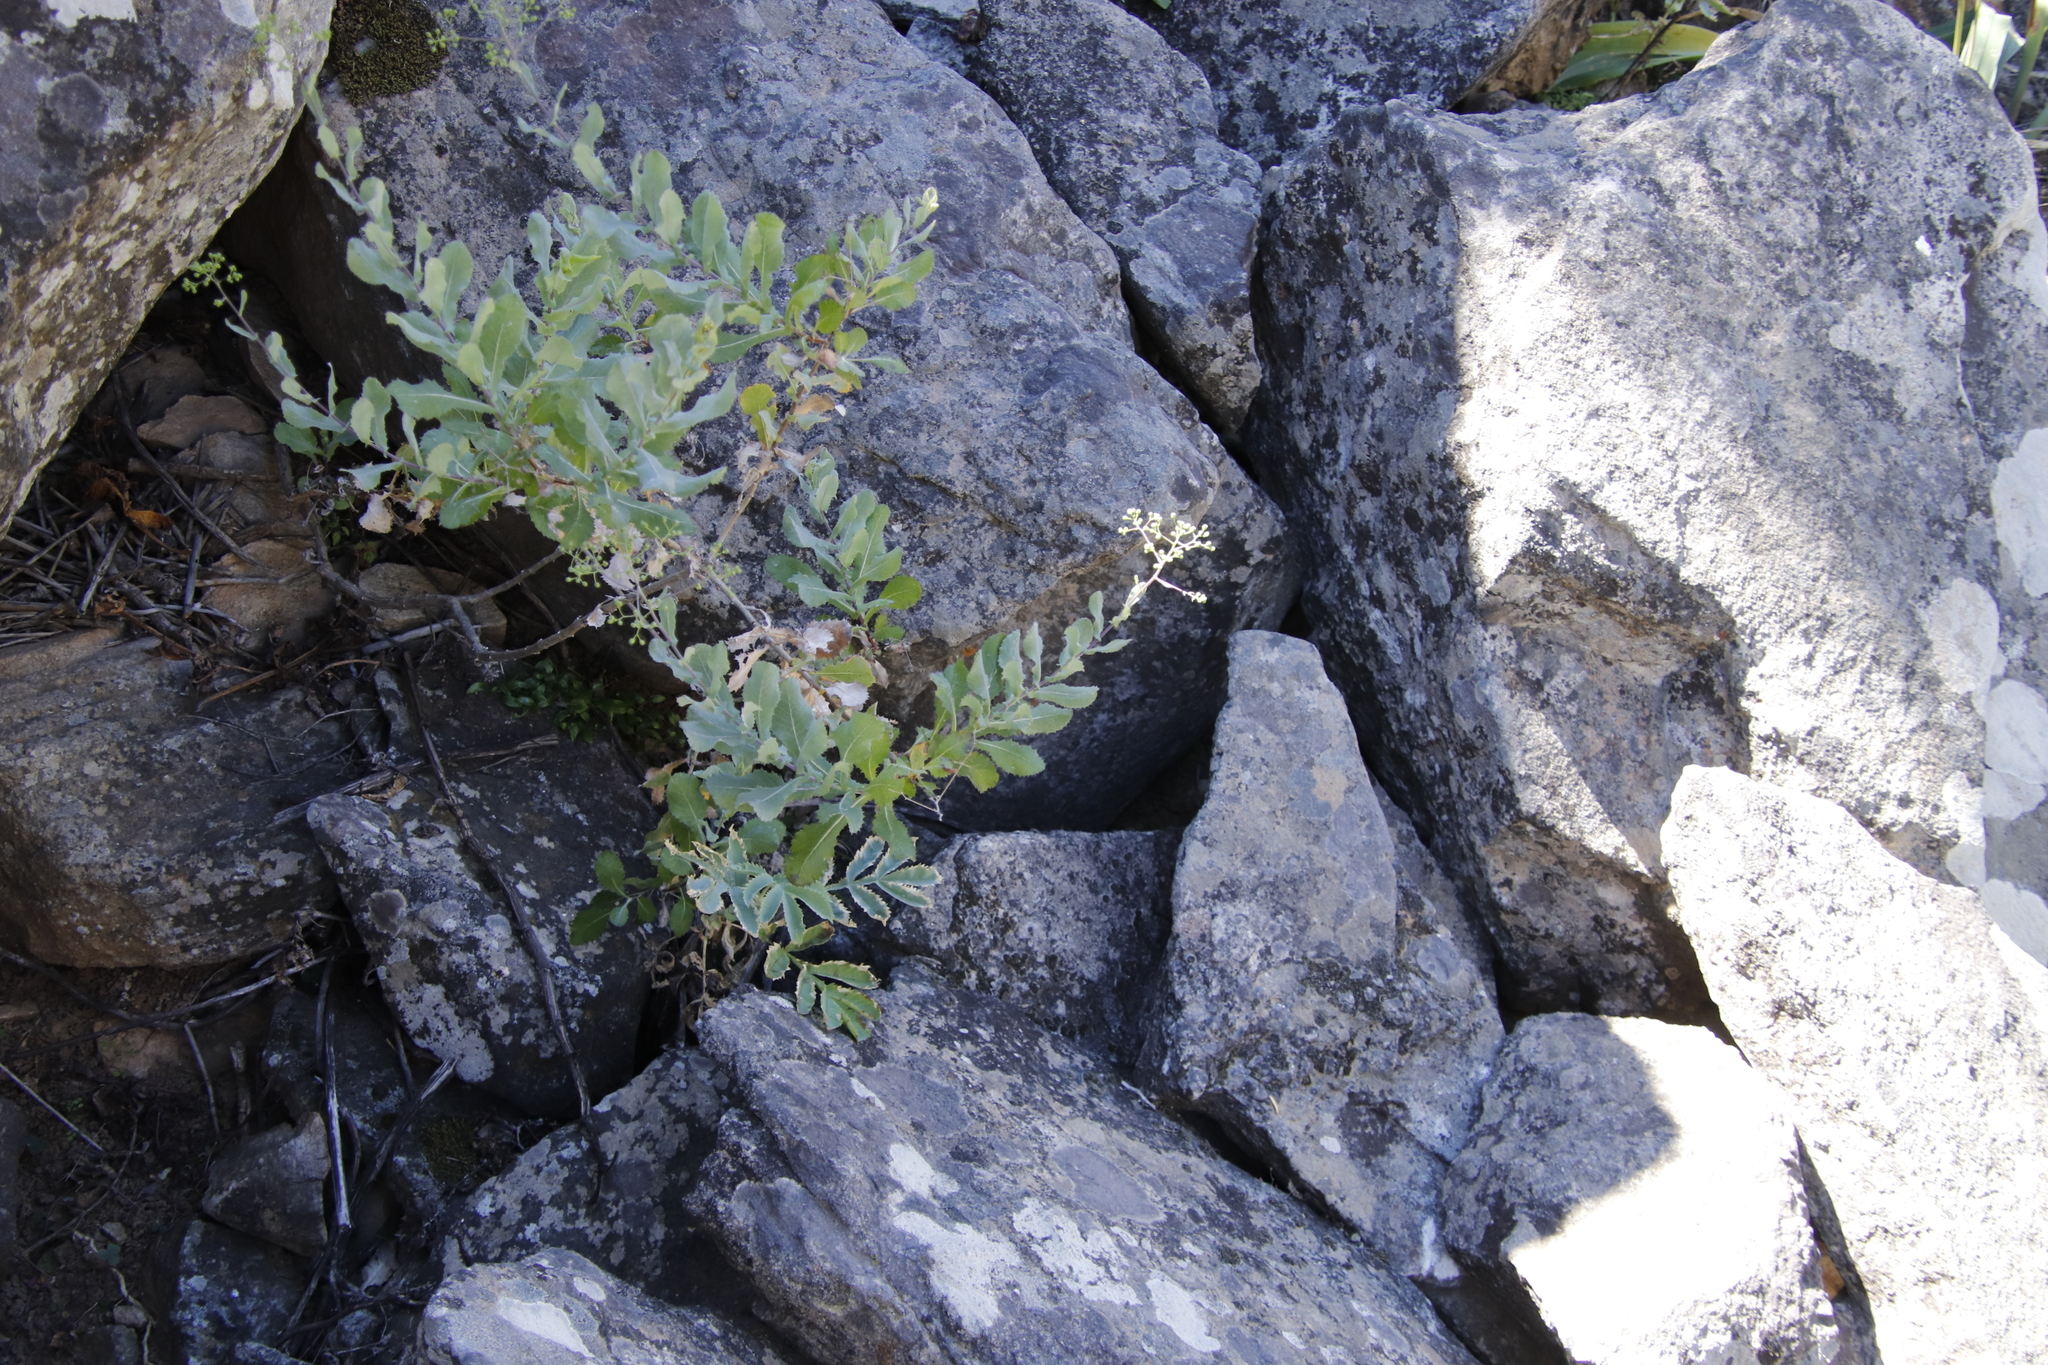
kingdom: Plantae
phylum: Tracheophyta
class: Magnoliopsida
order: Asterales
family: Asteraceae
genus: Senecio
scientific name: Senecio vestitus
